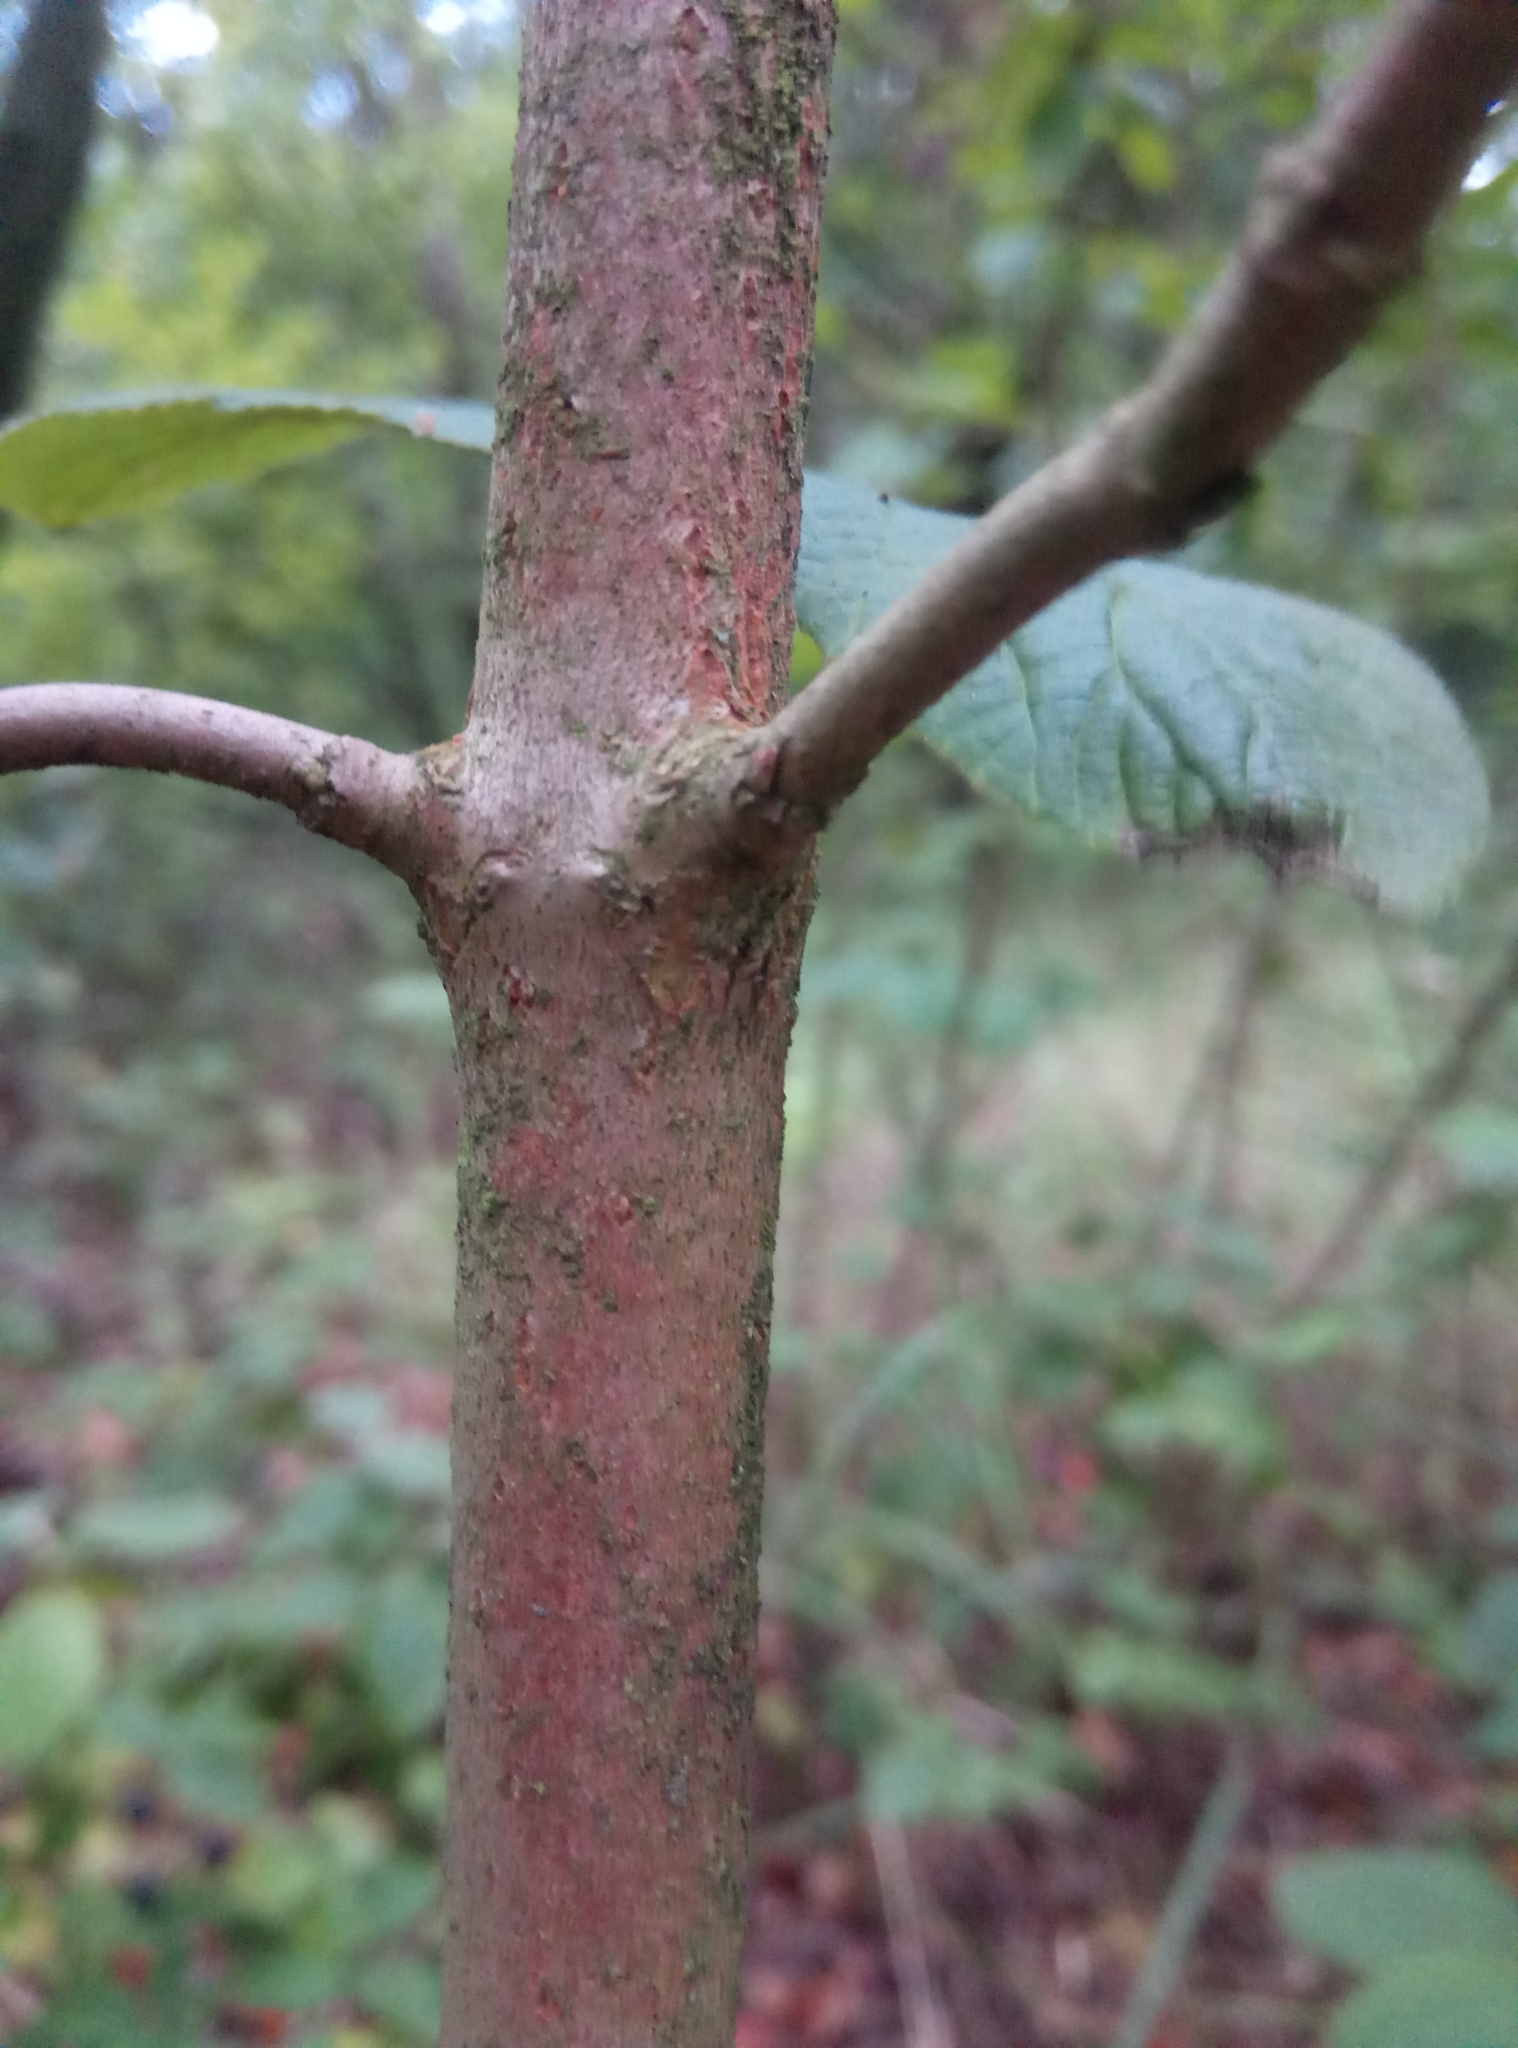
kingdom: Plantae
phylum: Tracheophyta
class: Magnoliopsida
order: Dipsacales
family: Viburnaceae
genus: Viburnum
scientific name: Viburnum lantana
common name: Wayfaring tree
